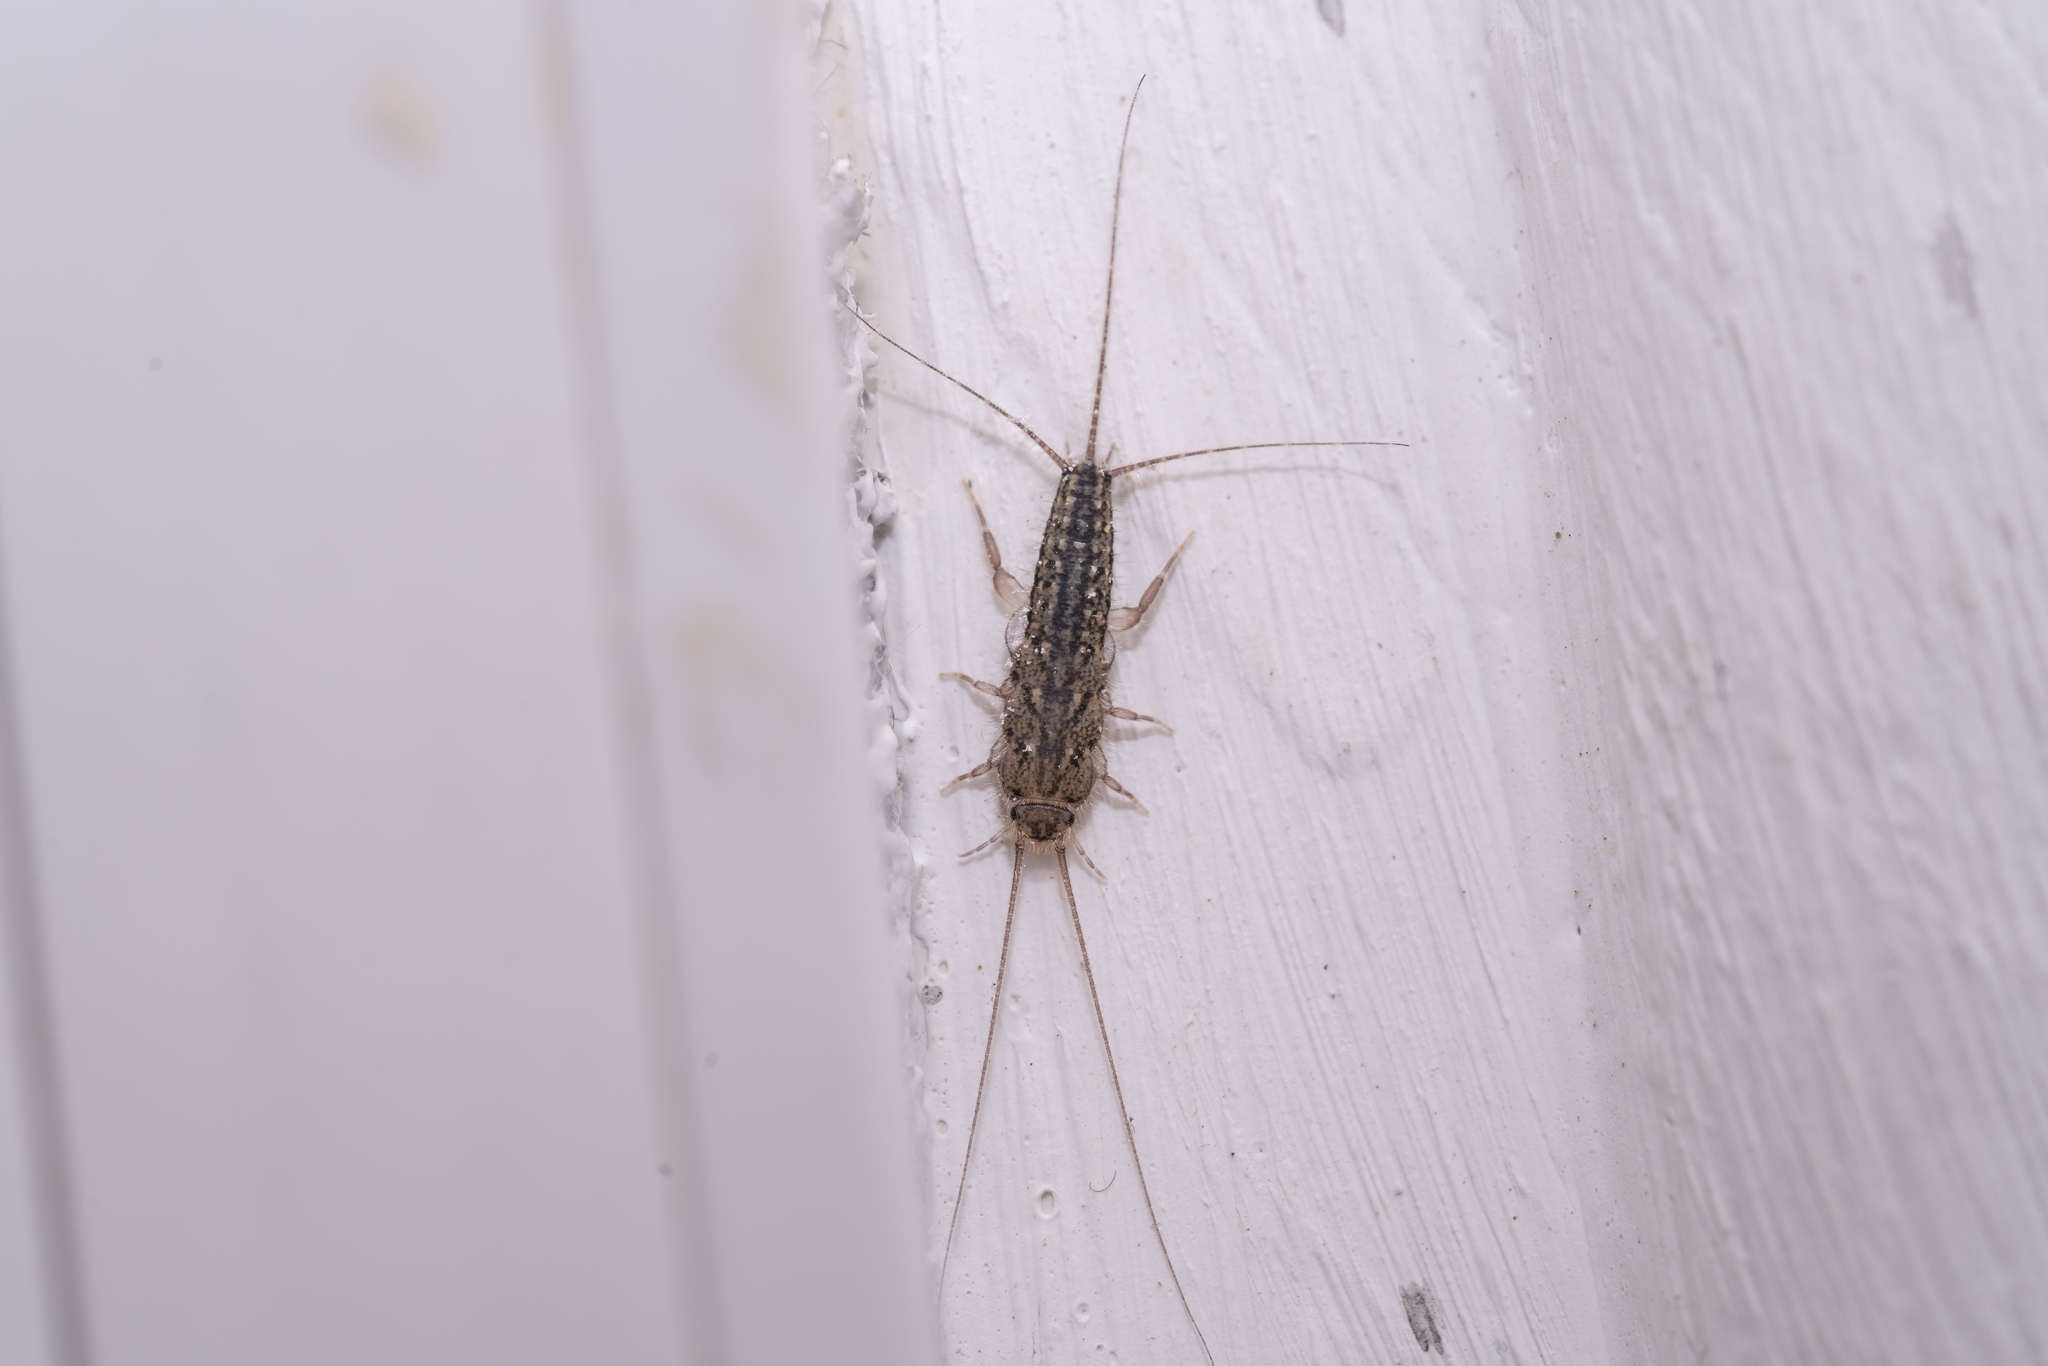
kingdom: Animalia
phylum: Arthropoda
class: Insecta
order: Zygentoma
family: Lepismatidae
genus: Ctenolepisma
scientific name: Ctenolepisma lineata
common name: Four-lined silverfish
